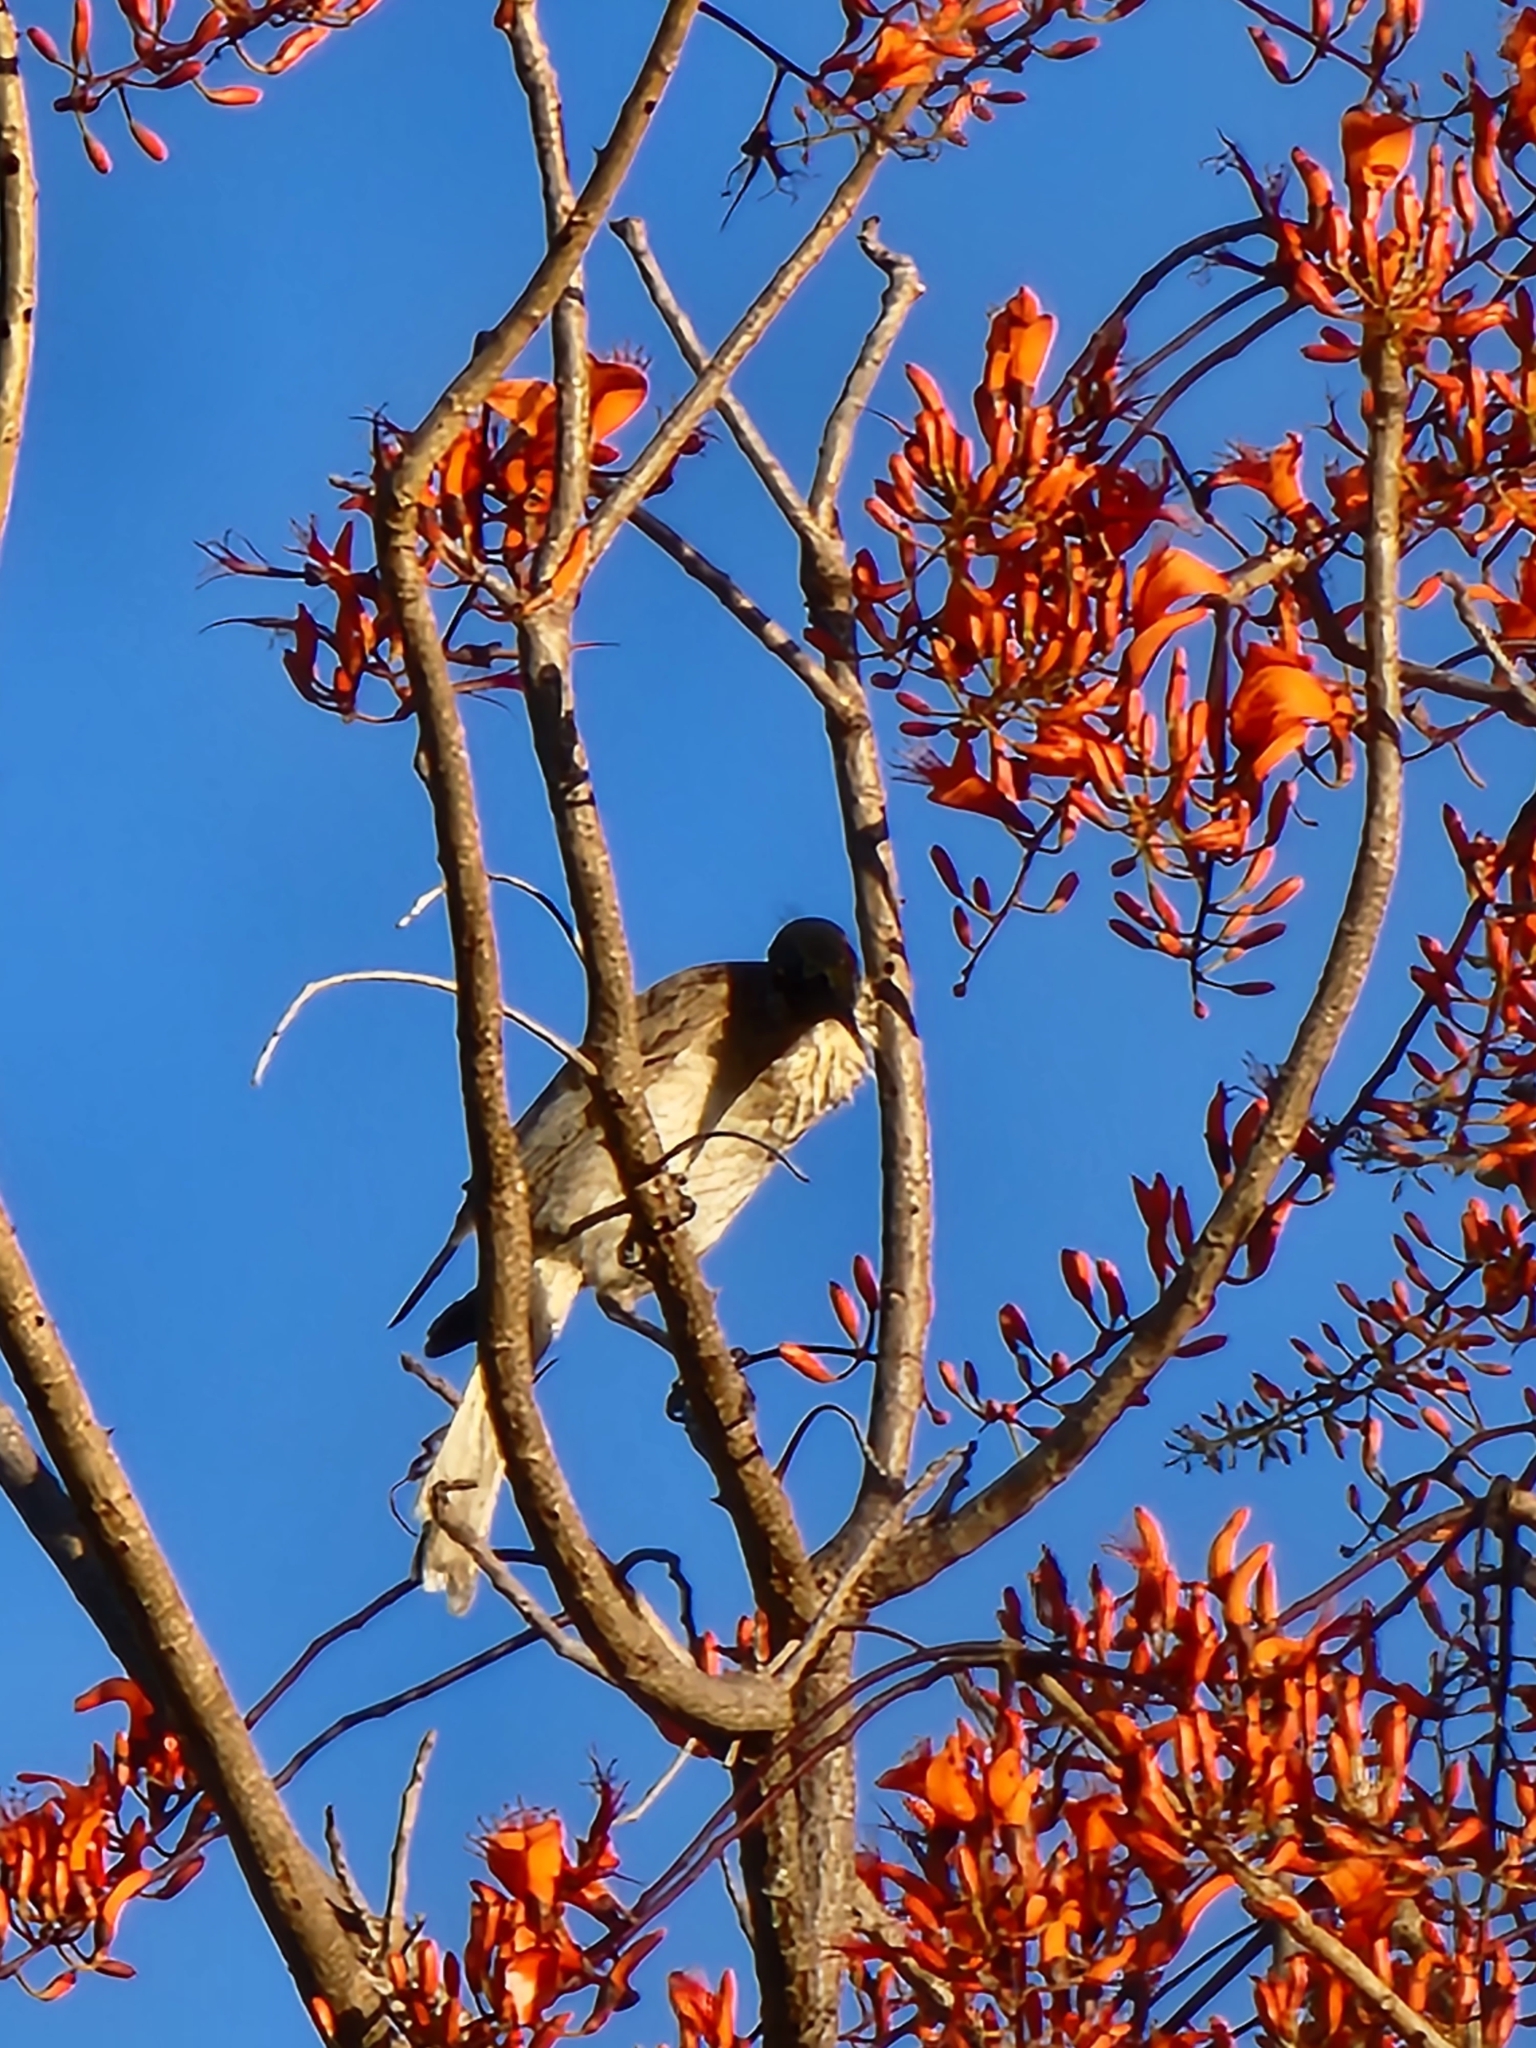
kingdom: Animalia
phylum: Chordata
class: Aves
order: Passeriformes
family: Meliphagidae
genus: Philemon
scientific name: Philemon corniculatus
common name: Noisy friarbird
